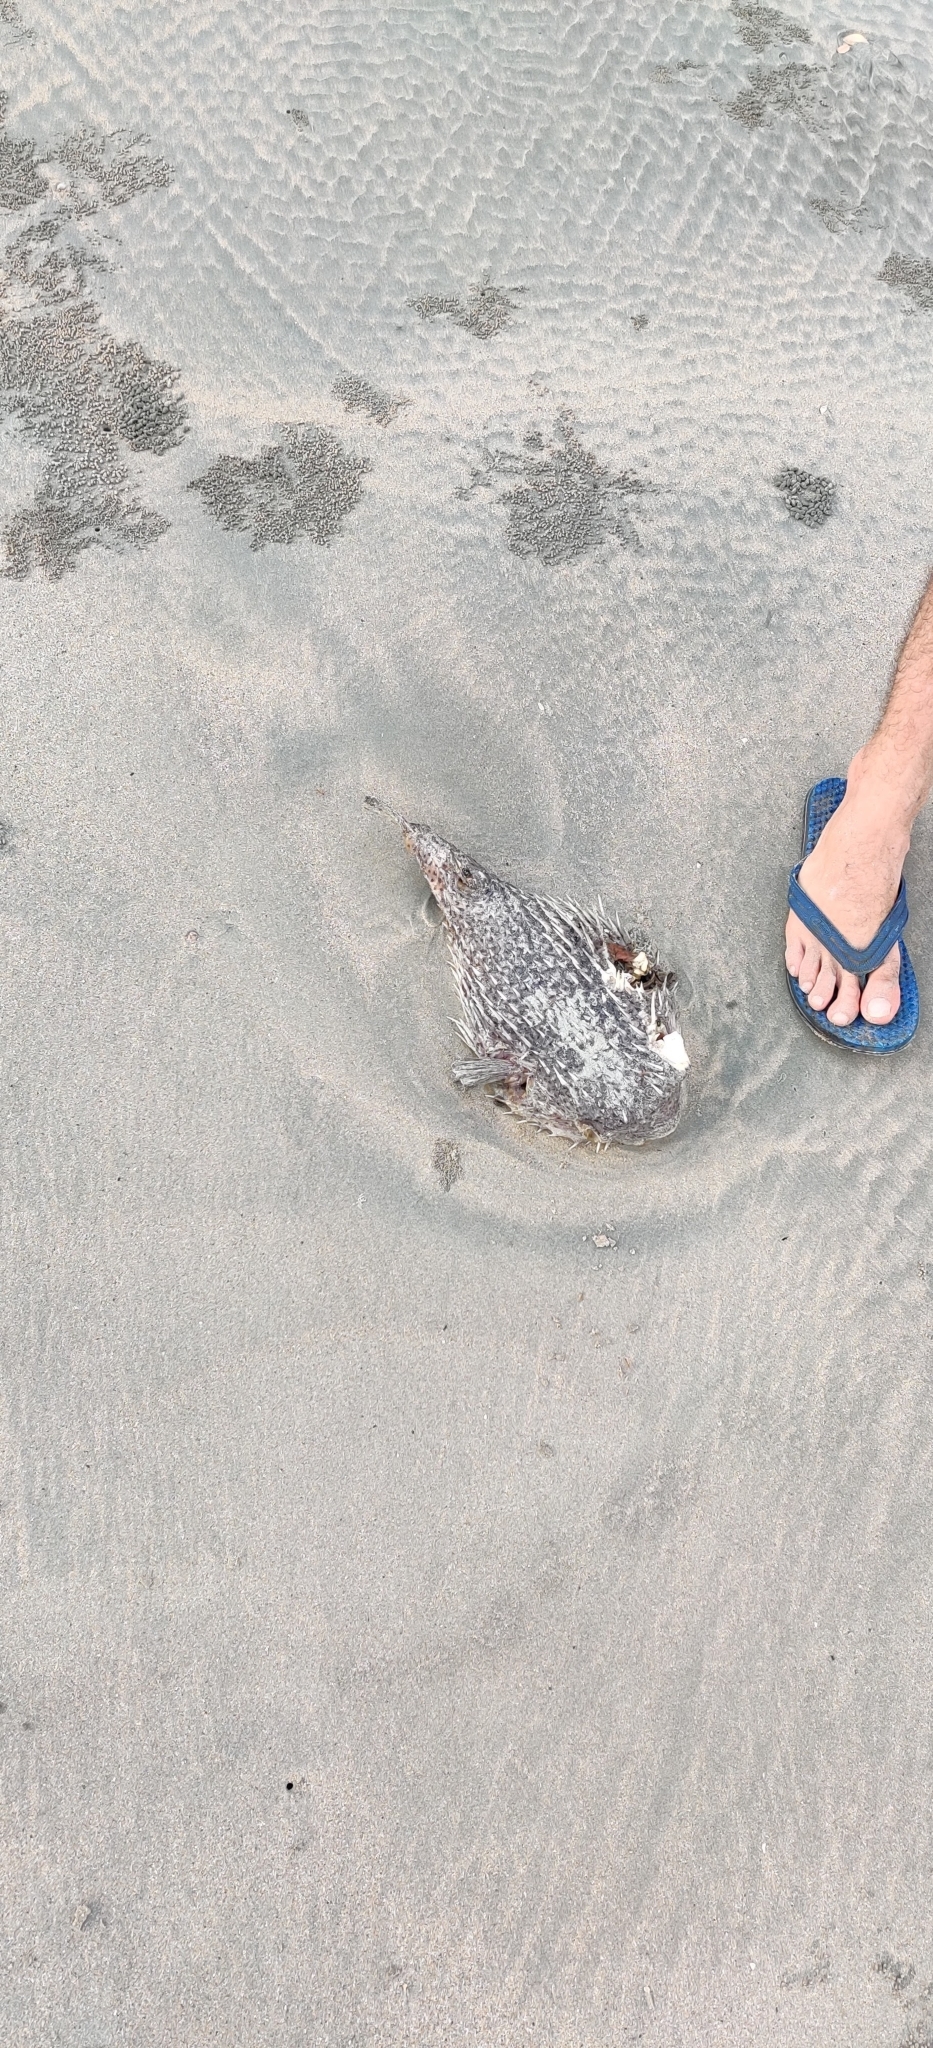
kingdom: Animalia
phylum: Chordata
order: Tetraodontiformes
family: Diodontidae
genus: Diodon
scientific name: Diodon hystrix
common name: Giant porcupinefish
